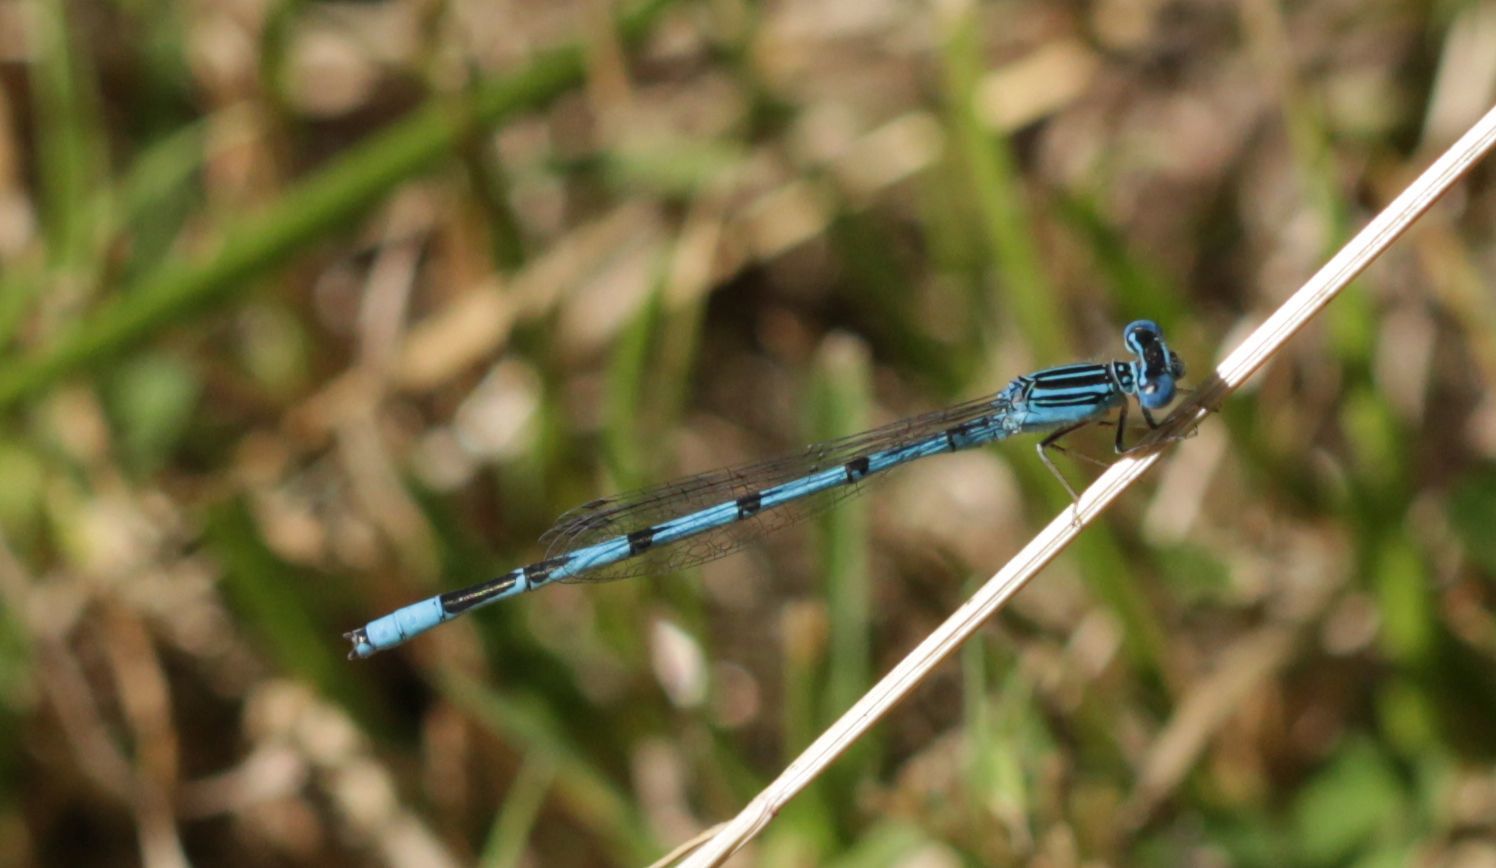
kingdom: Animalia
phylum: Arthropoda
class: Insecta
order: Odonata
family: Coenagrionidae
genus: Enallagma
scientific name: Enallagma basidens
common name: Double-striped bluet
